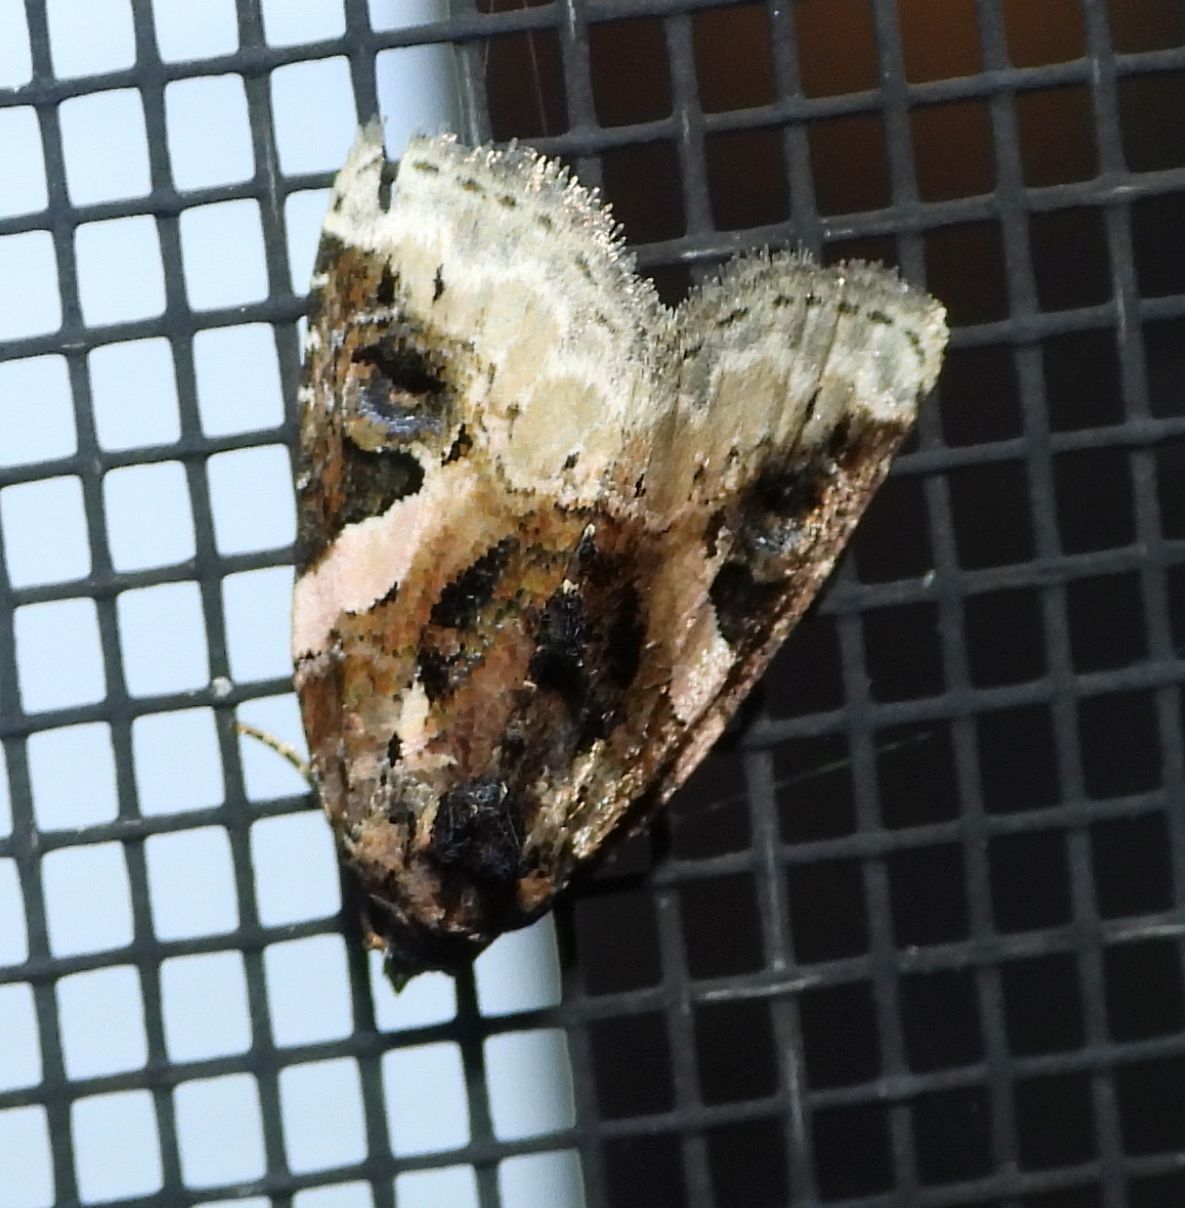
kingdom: Animalia
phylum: Arthropoda
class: Insecta
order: Lepidoptera
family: Noctuidae
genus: Pseudeustrotia
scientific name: Pseudeustrotia carneola
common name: Pink-barred lithacodia moth
